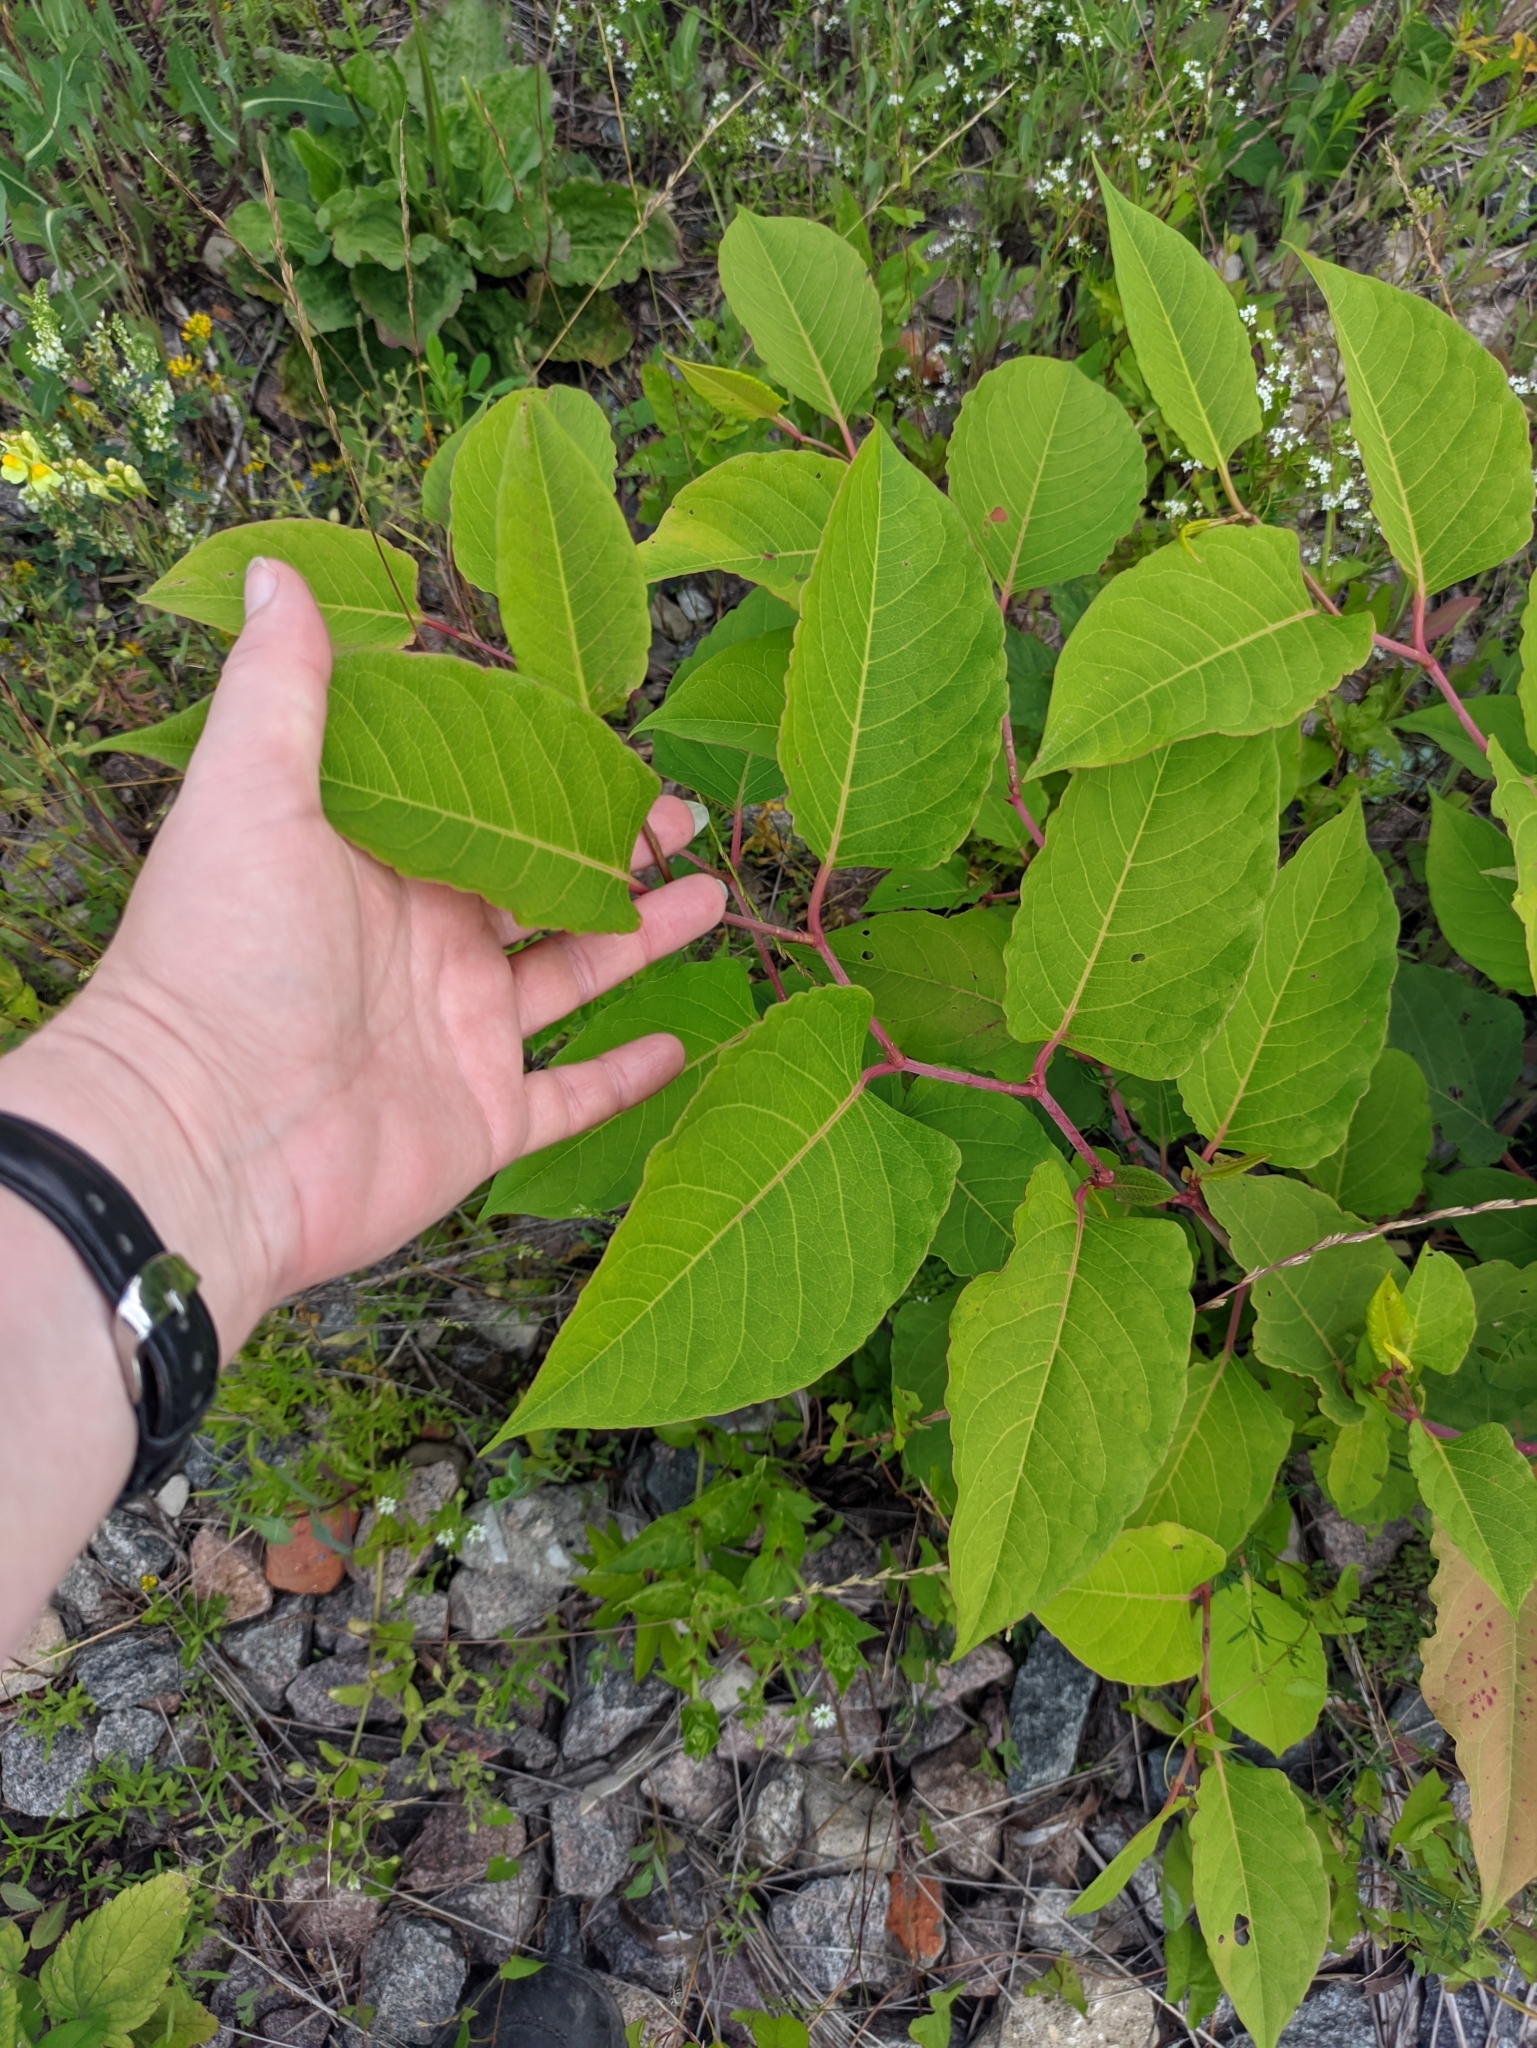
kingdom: Plantae
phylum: Tracheophyta
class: Magnoliopsida
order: Caryophyllales
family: Polygonaceae
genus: Reynoutria
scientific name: Reynoutria japonica
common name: Japanese knotweed
